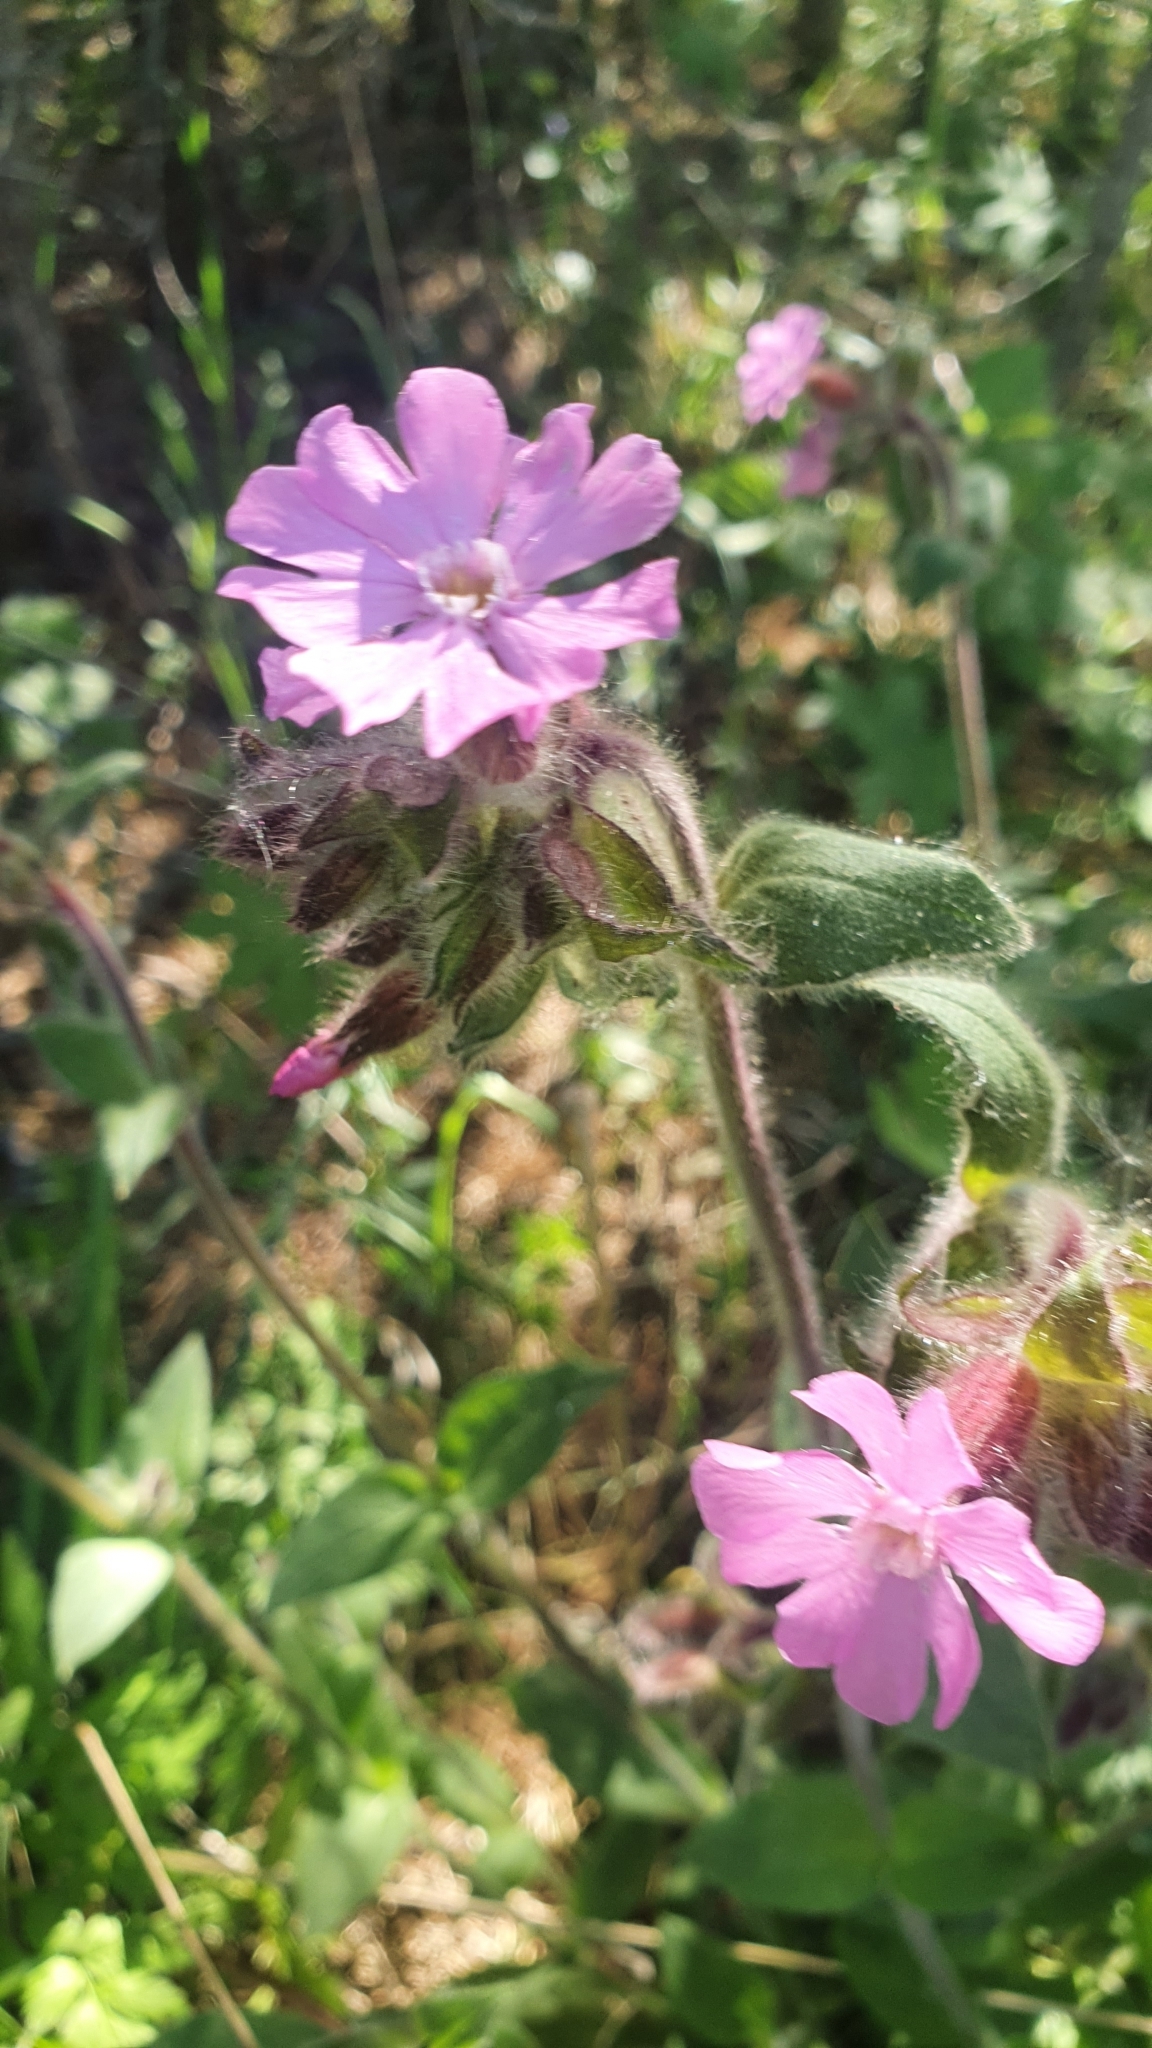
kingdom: Plantae
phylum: Tracheophyta
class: Magnoliopsida
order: Caryophyllales
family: Caryophyllaceae
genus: Silene
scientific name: Silene dioica
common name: Red campion
